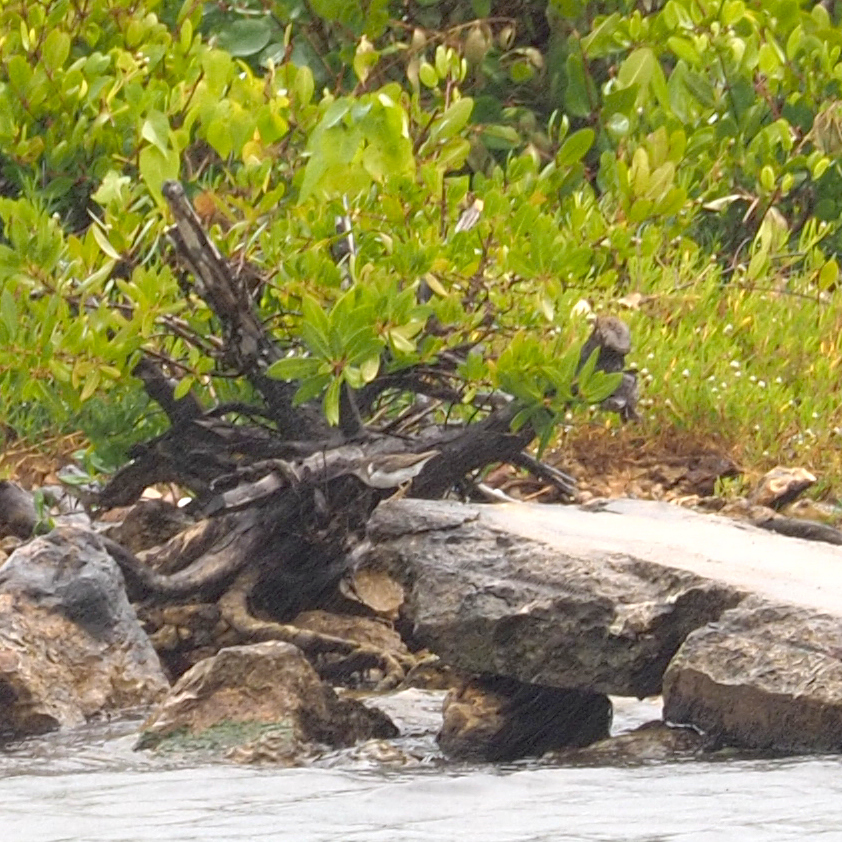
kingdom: Animalia
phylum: Chordata
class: Aves
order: Charadriiformes
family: Scolopacidae
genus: Actitis
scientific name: Actitis macularius
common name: Spotted sandpiper
